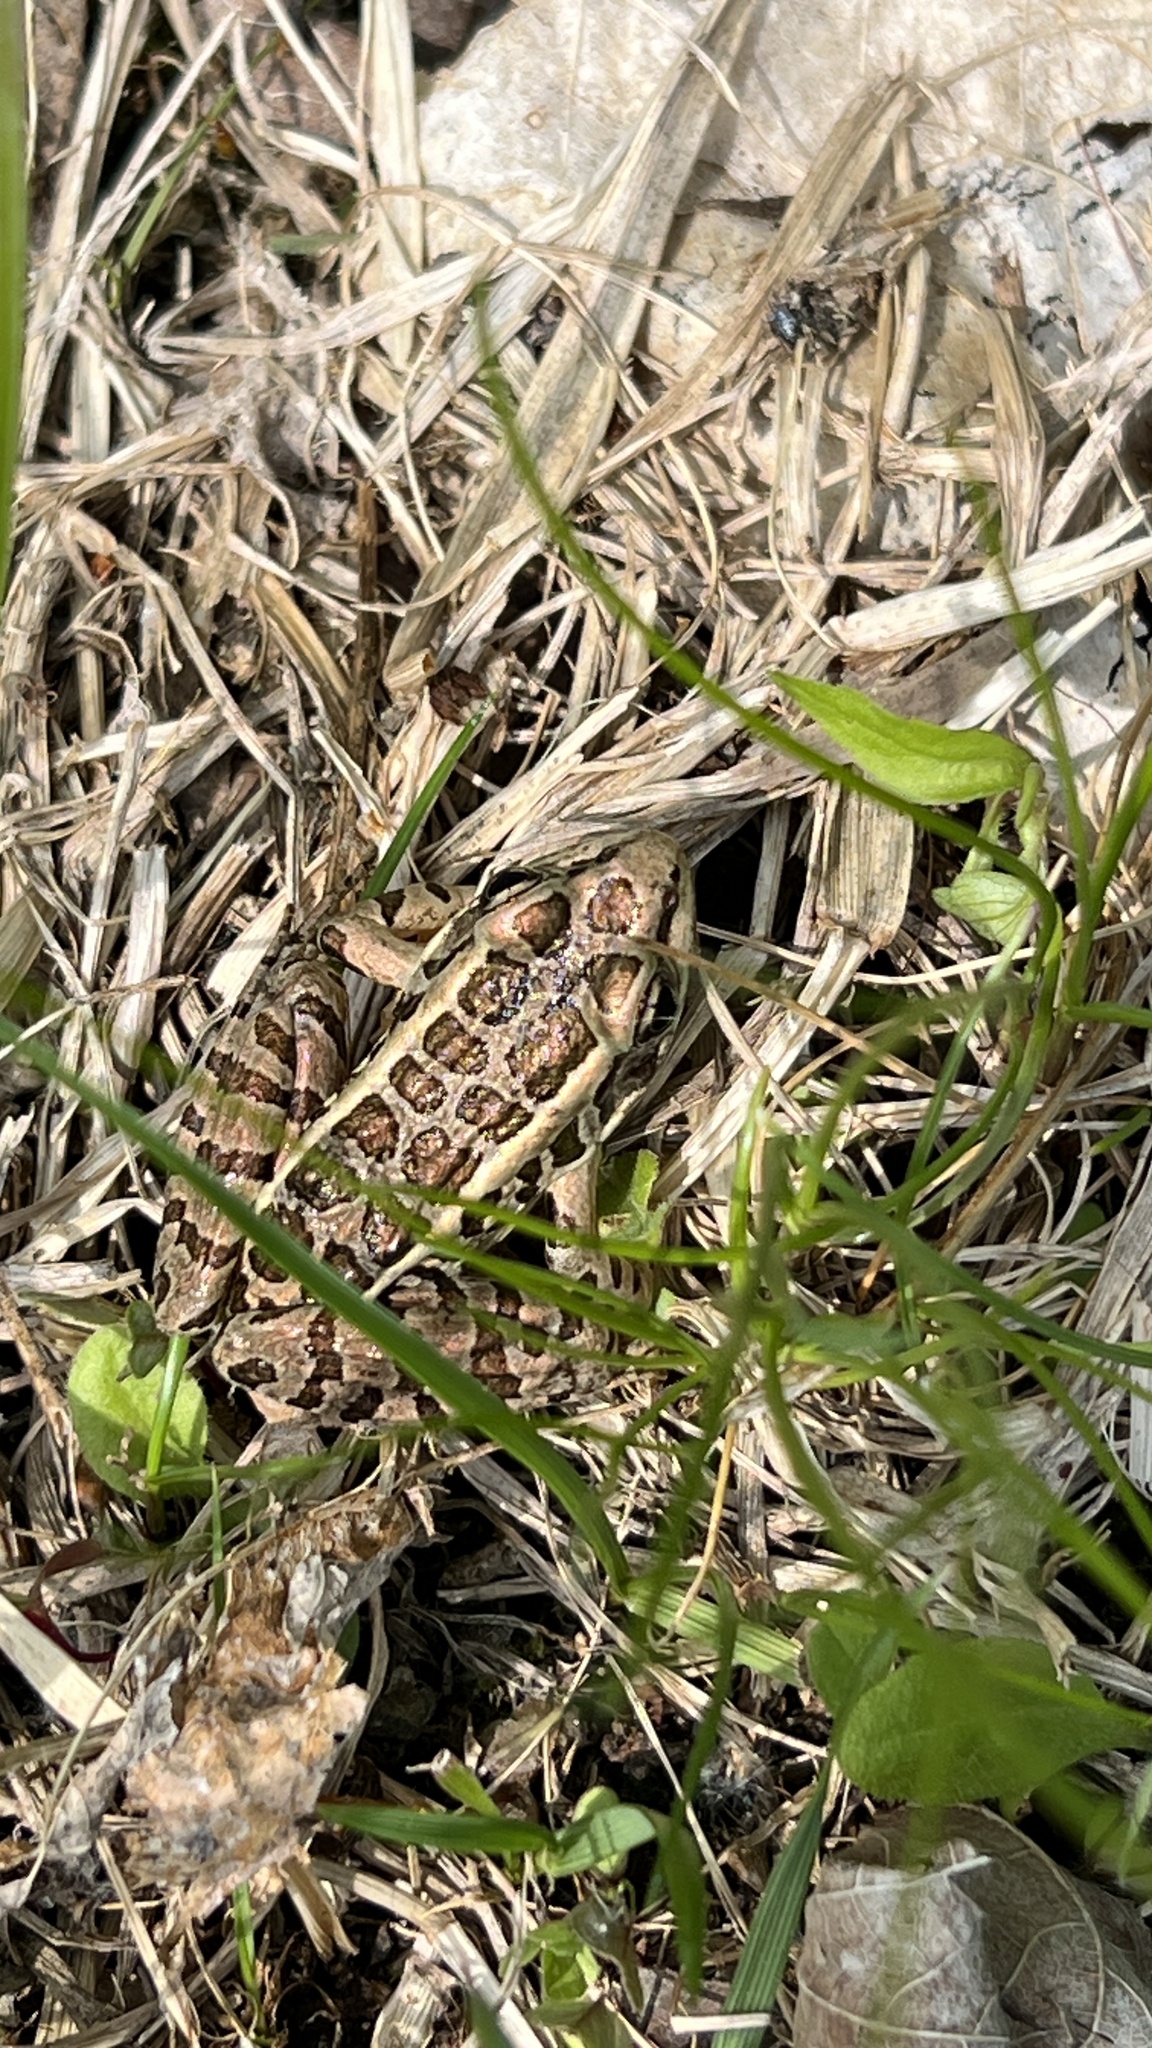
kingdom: Animalia
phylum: Chordata
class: Amphibia
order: Anura
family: Ranidae
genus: Lithobates
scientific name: Lithobates palustris
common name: Pickerel frog
